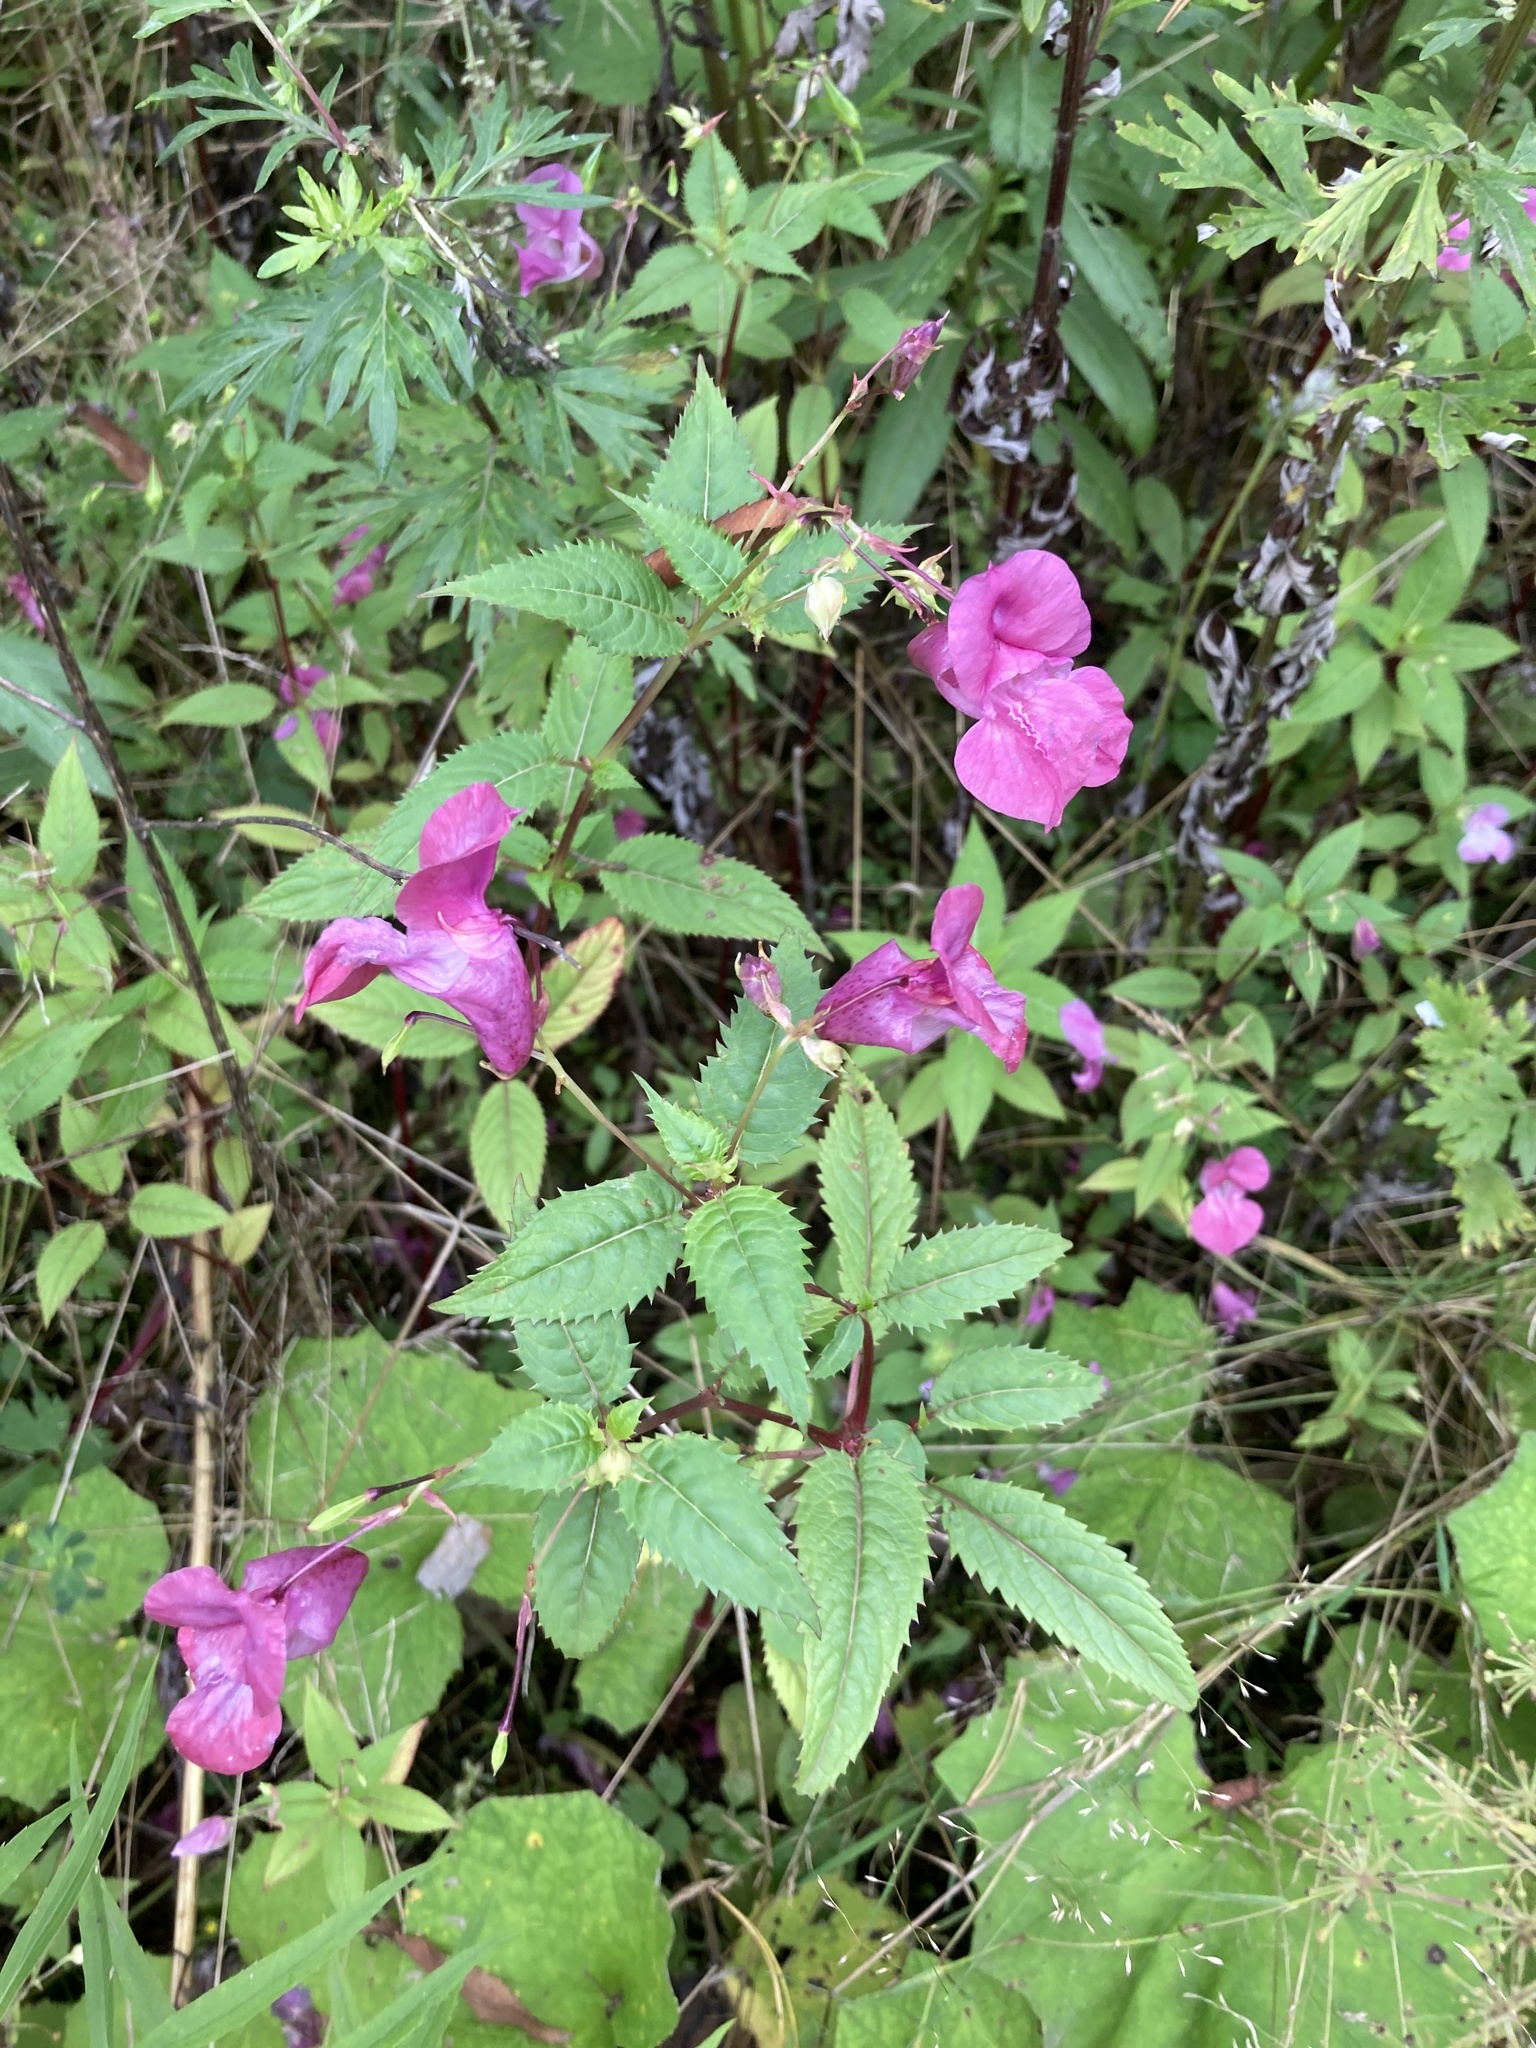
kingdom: Plantae
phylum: Tracheophyta
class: Magnoliopsida
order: Ericales
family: Balsaminaceae
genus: Impatiens
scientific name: Impatiens glandulifera
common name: Himalayan balsam
